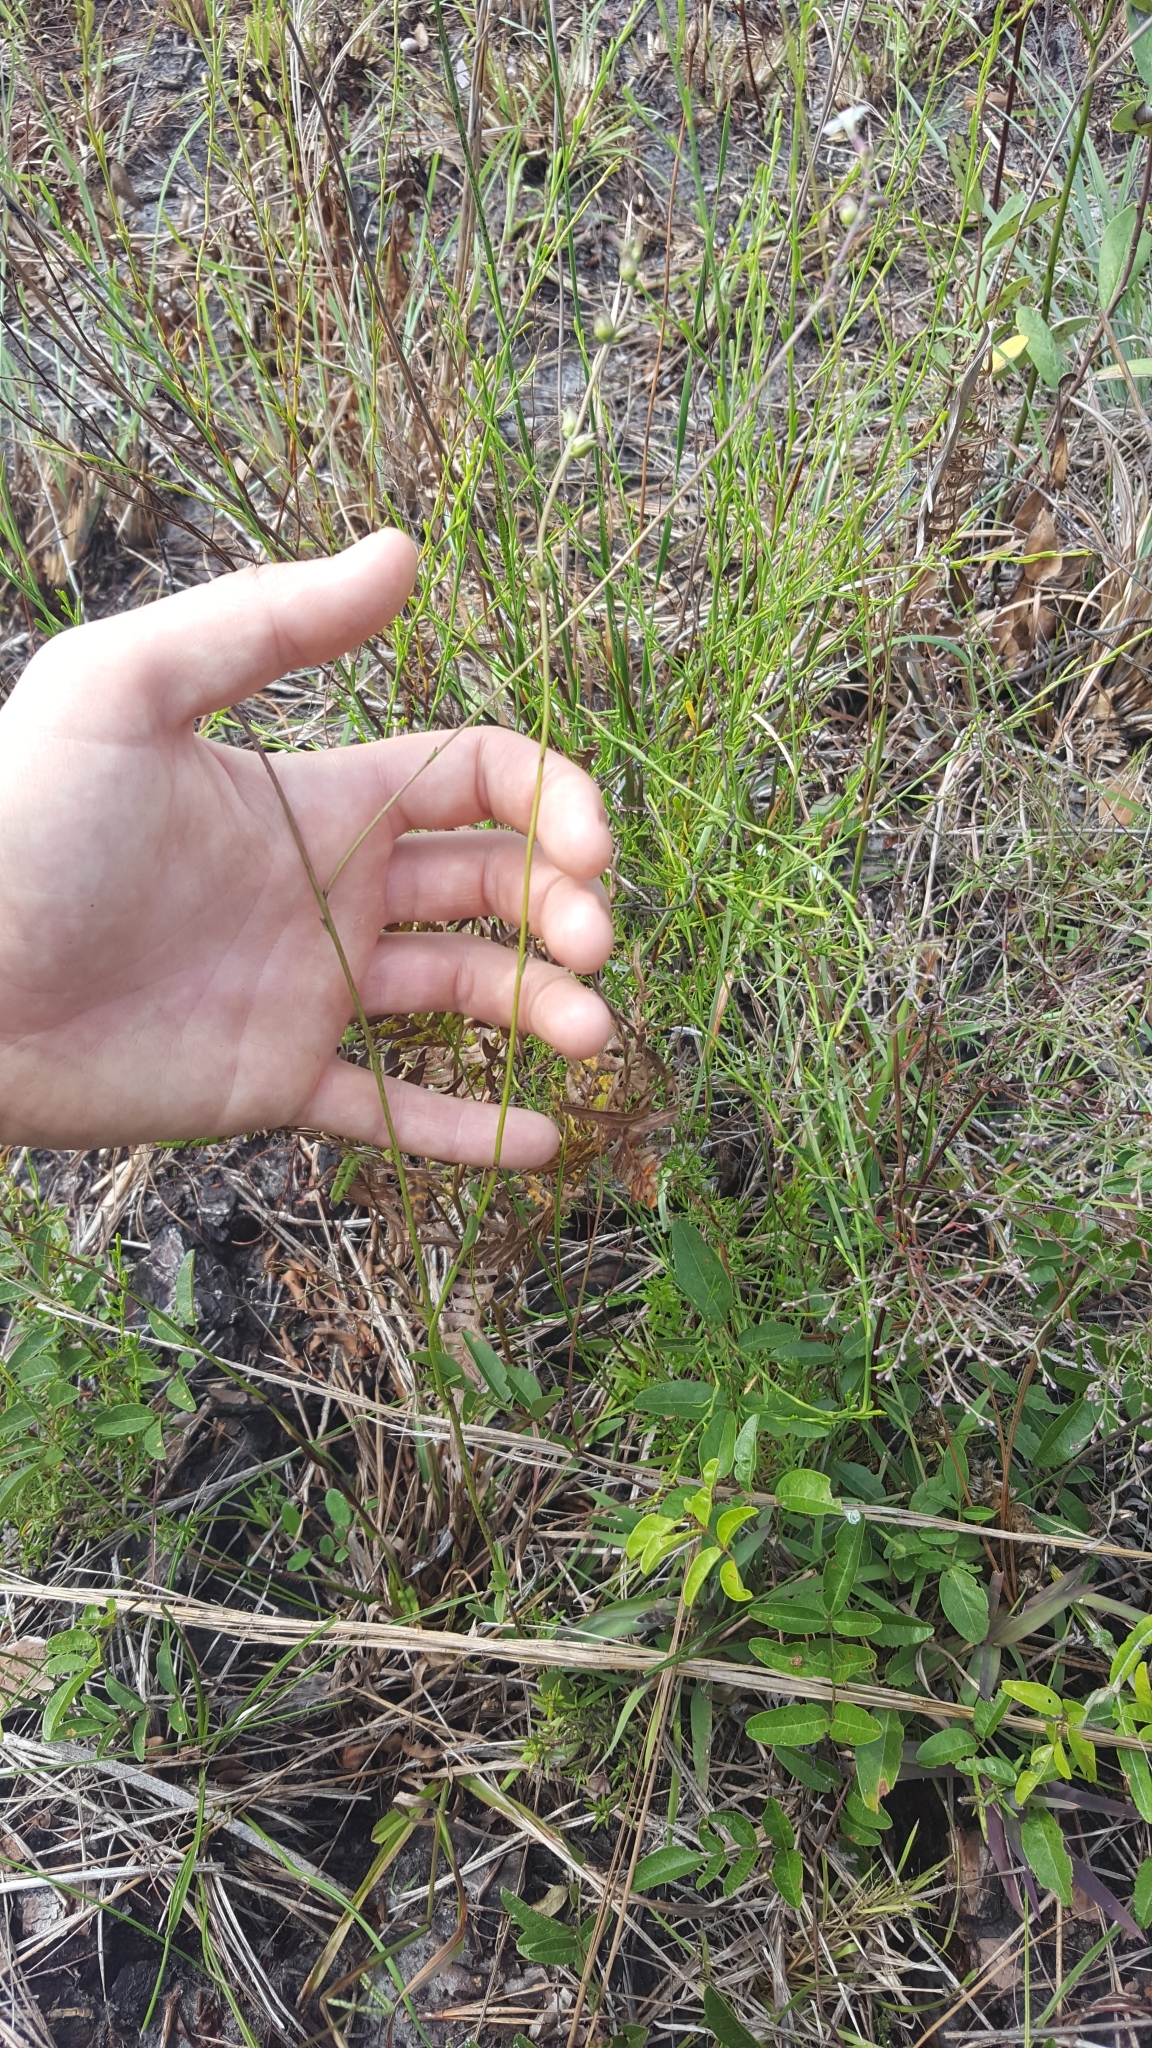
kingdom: Plantae
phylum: Tracheophyta
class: Magnoliopsida
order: Lamiales
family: Orobanchaceae
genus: Buchnera
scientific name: Buchnera floridana
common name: Florida bluehearts
